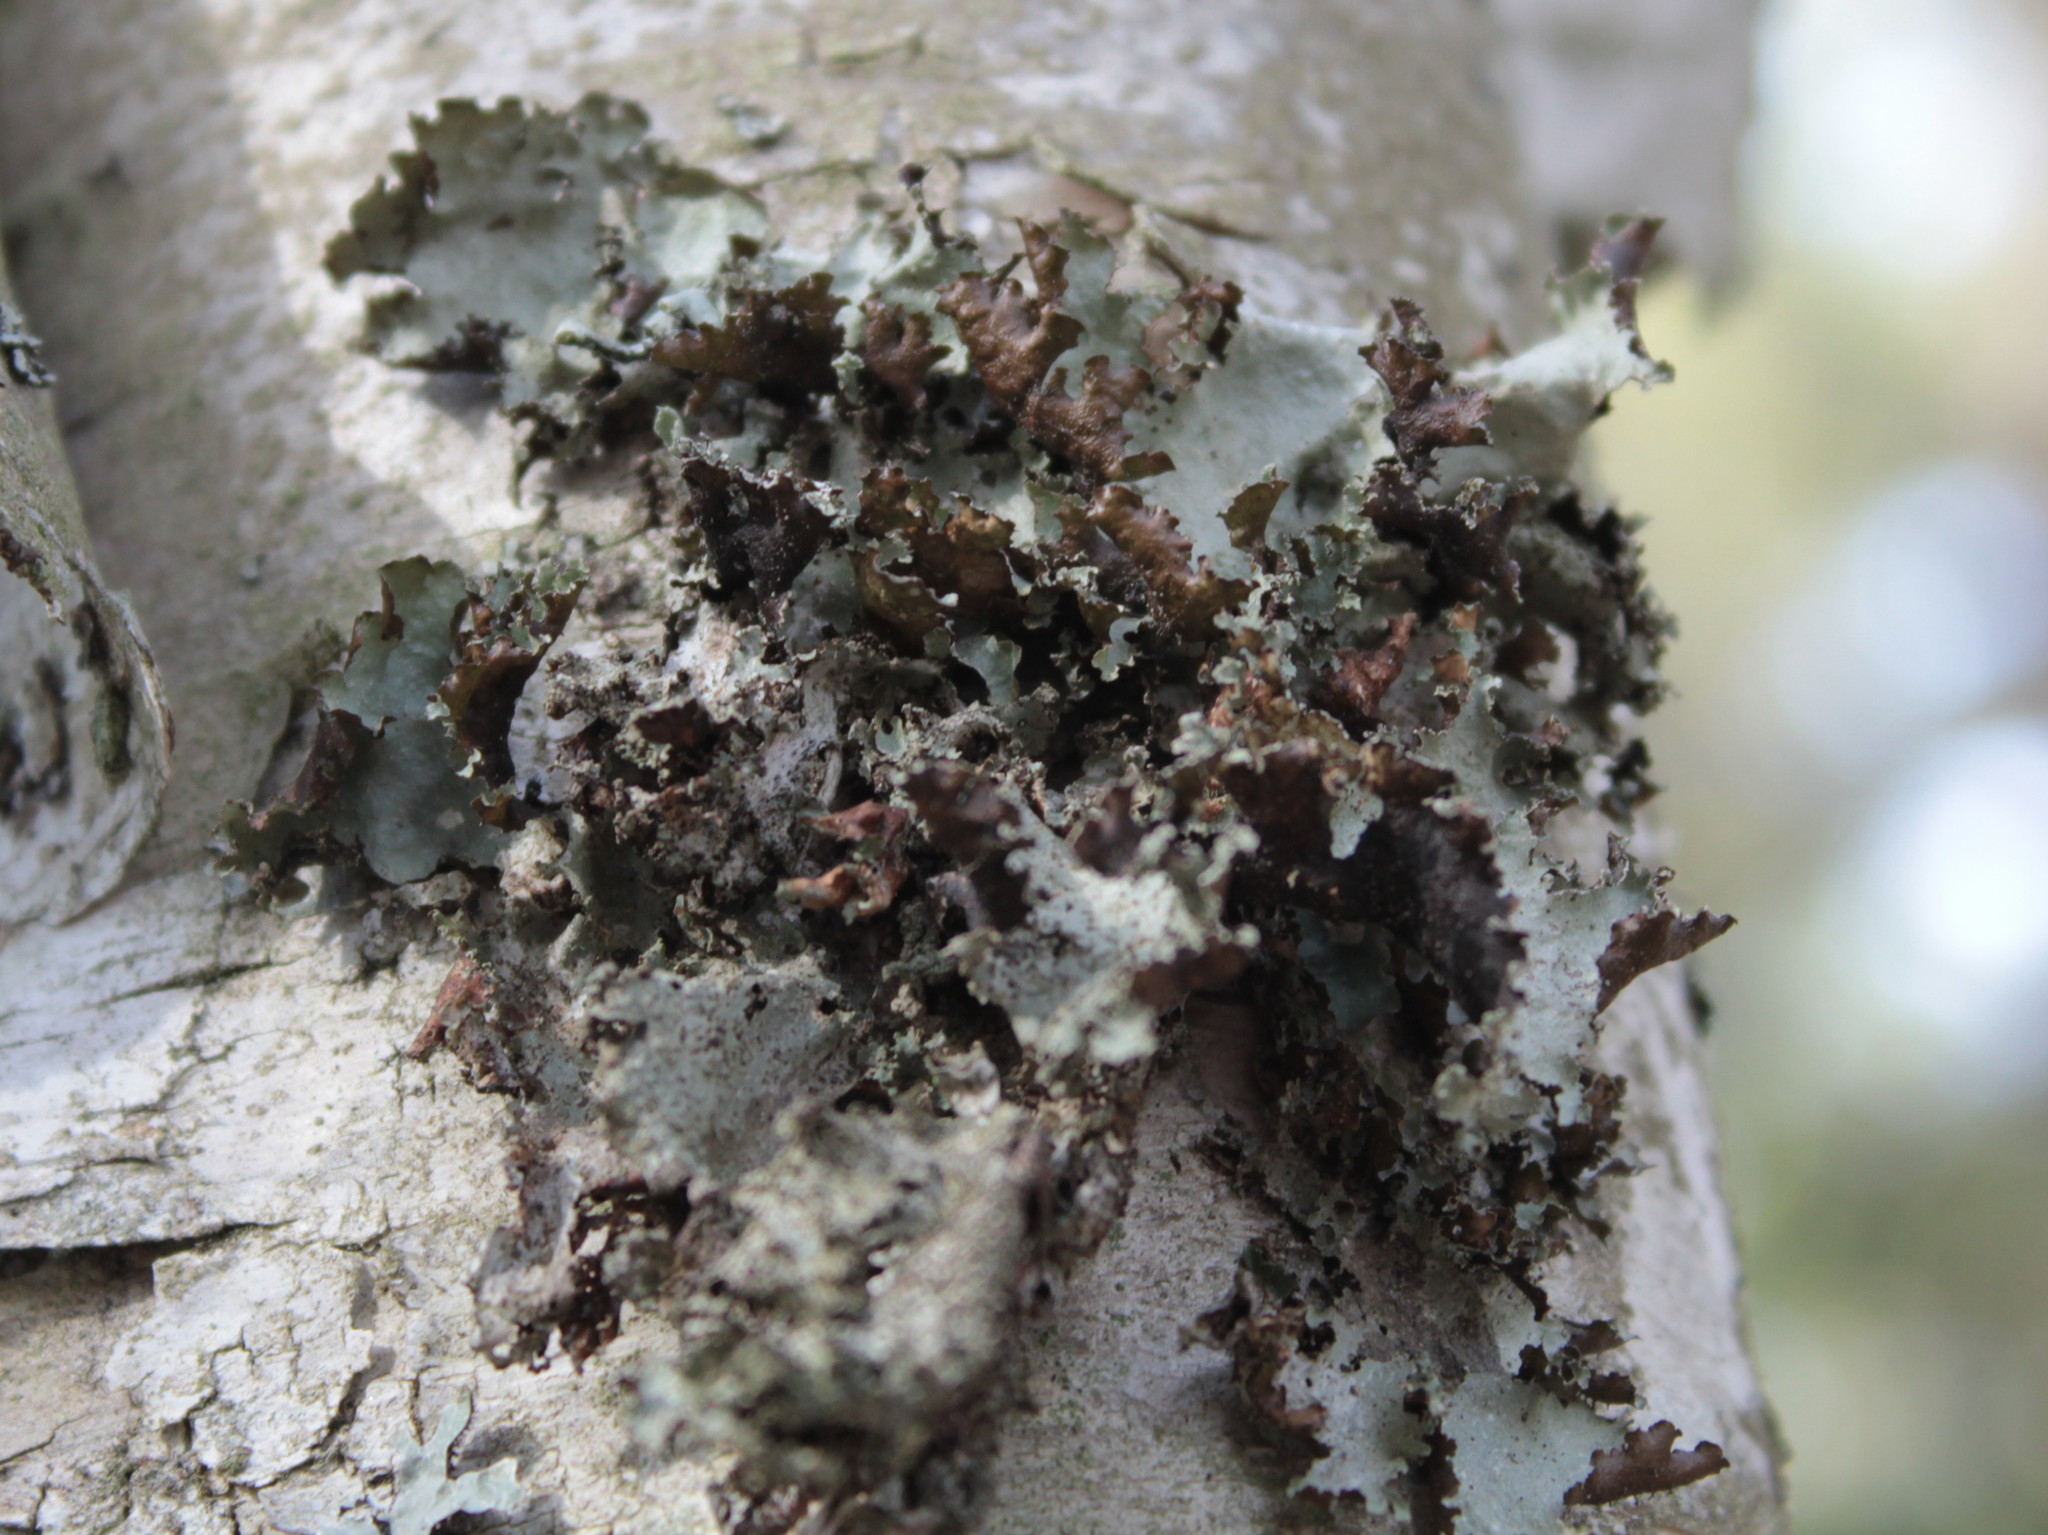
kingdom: Fungi
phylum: Ascomycota
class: Lecanoromycetes
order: Lecanorales
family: Parmeliaceae
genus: Platismatia
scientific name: Platismatia glauca
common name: Varied rag lichen
